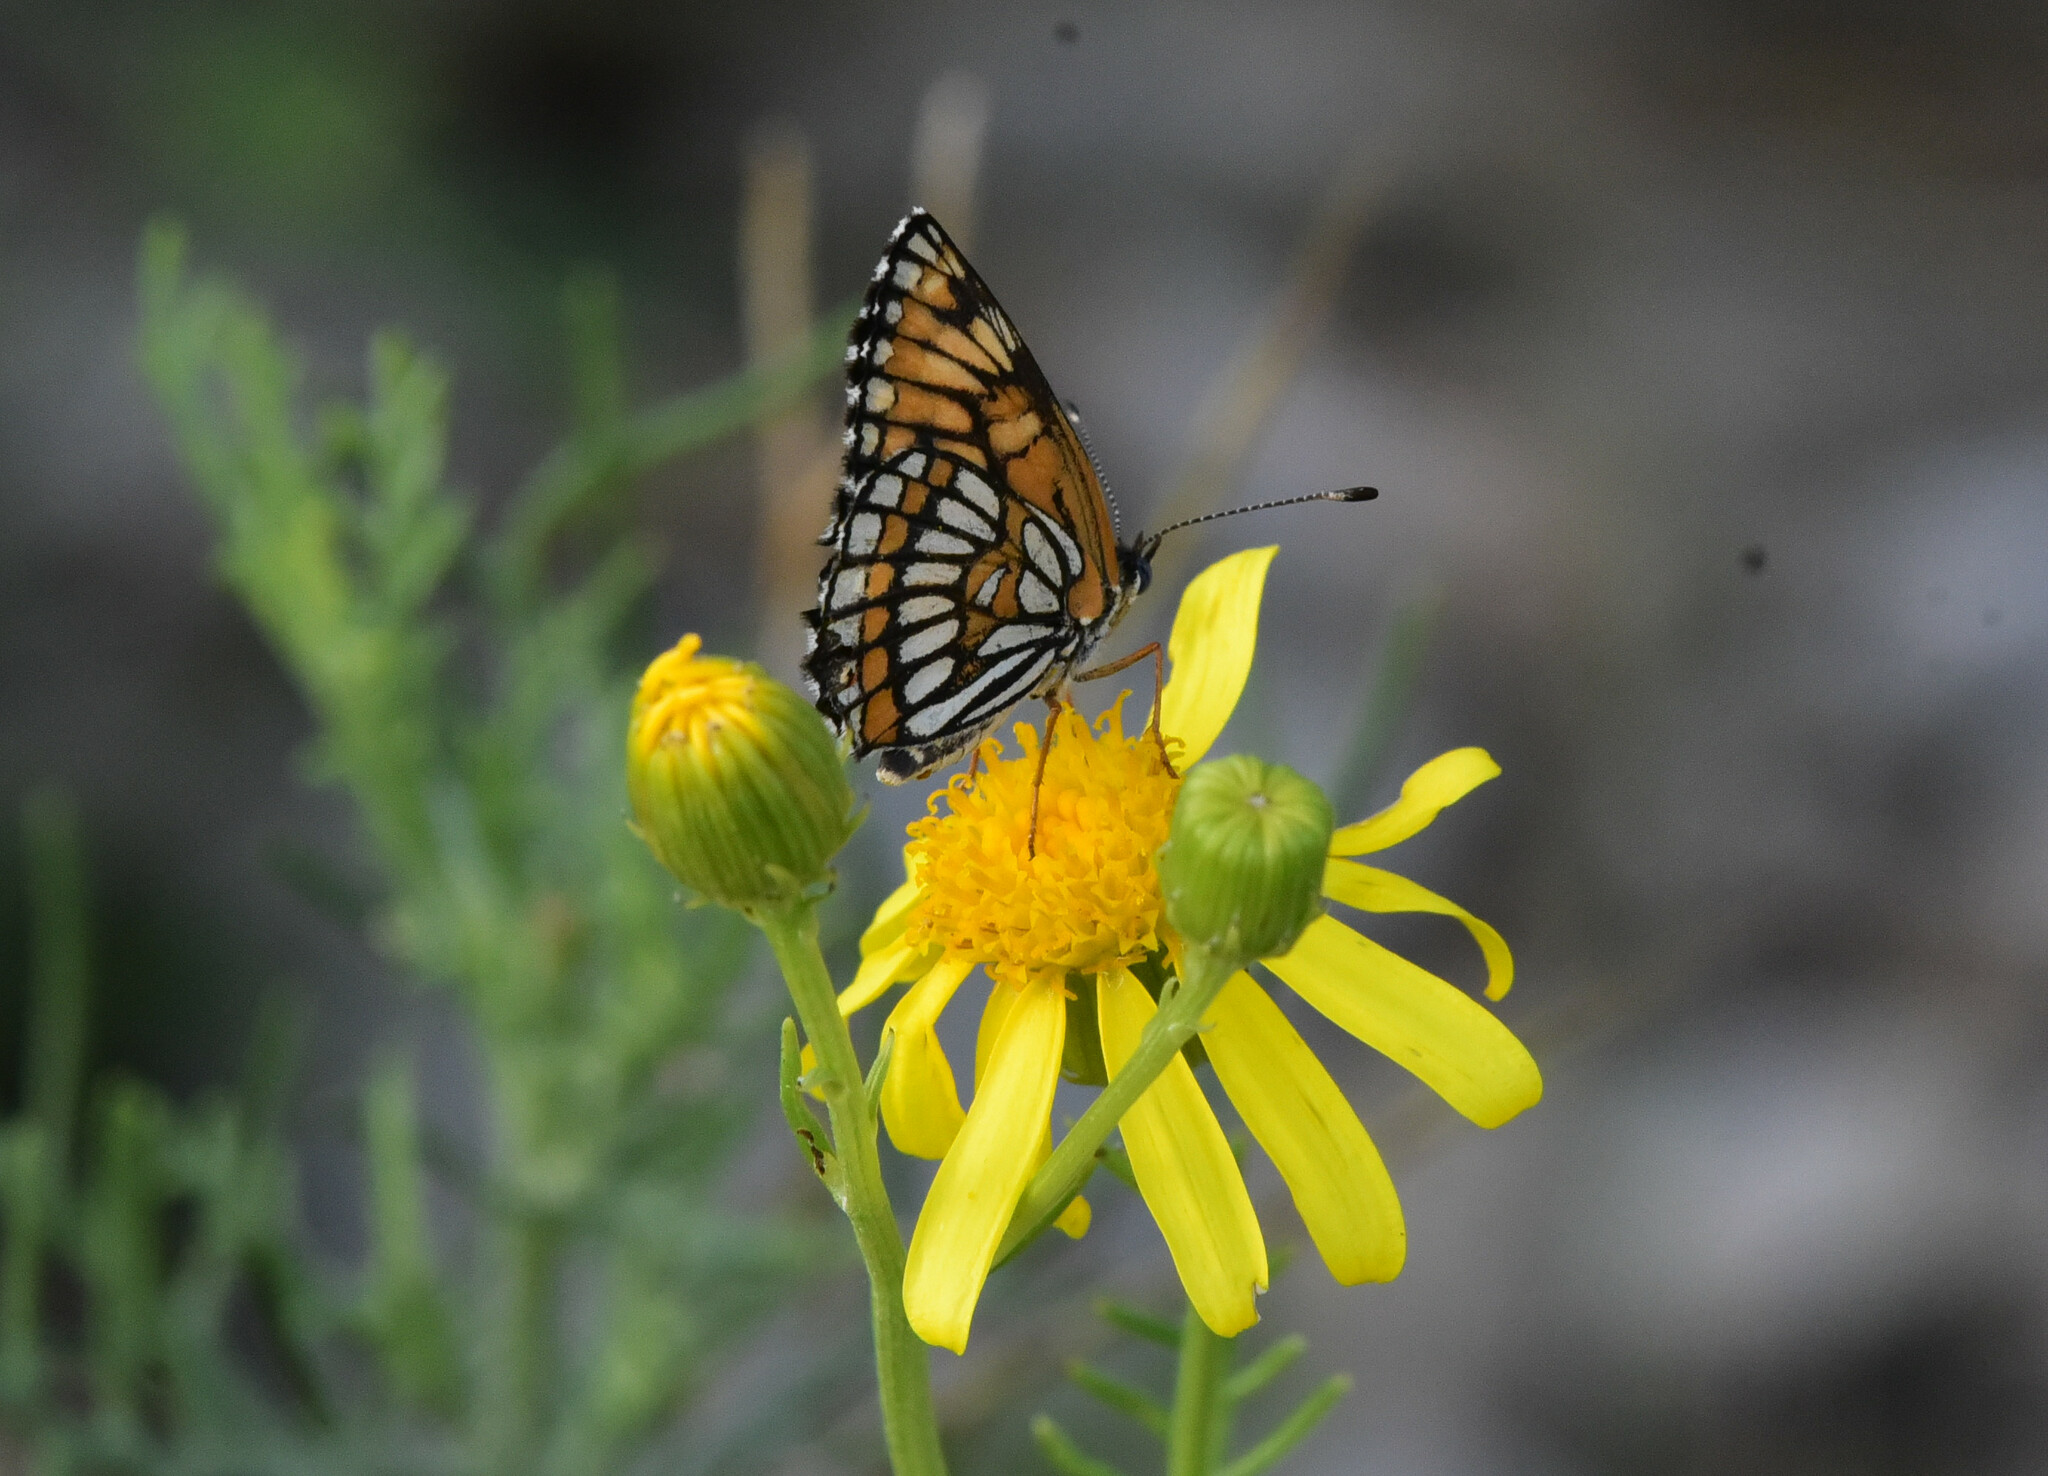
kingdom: Animalia
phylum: Arthropoda
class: Insecta
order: Lepidoptera
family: Nymphalidae
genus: Thessalia
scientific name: Thessalia theona
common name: Nymphalid moth
